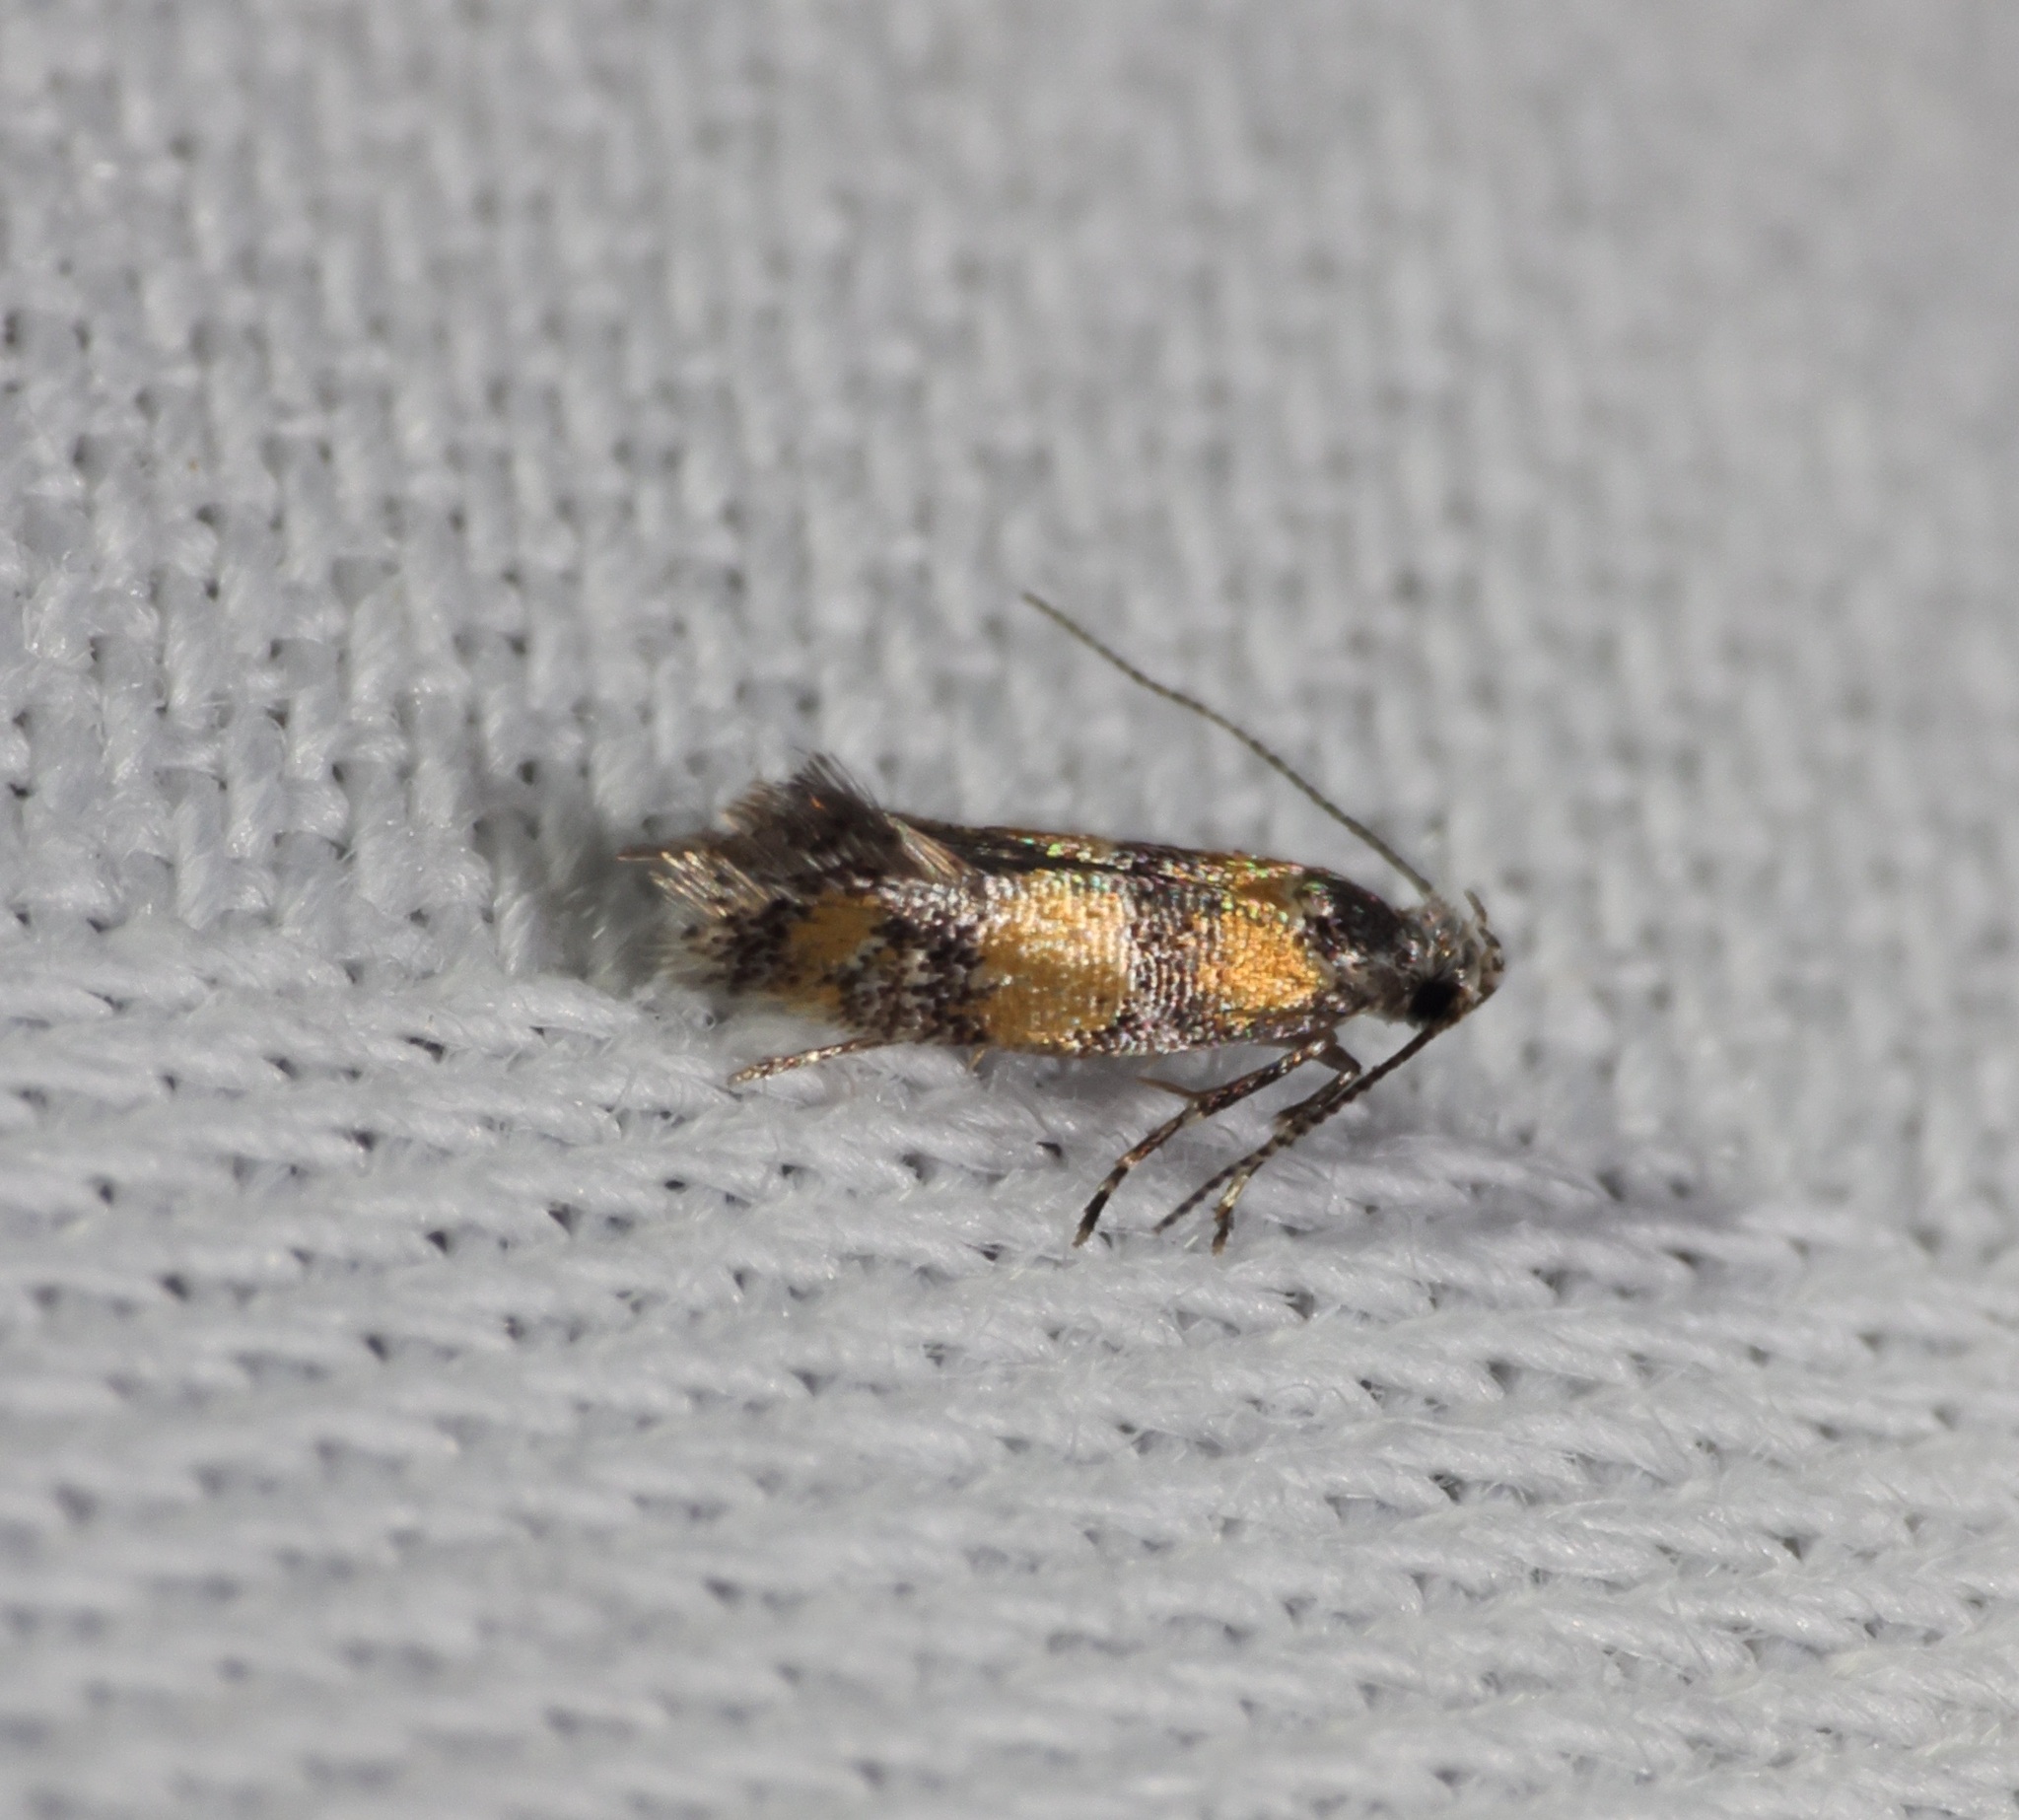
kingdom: Animalia
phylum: Arthropoda
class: Insecta
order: Lepidoptera
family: Oecophoridae
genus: Promalactis
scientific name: Promalactis lobatifera
